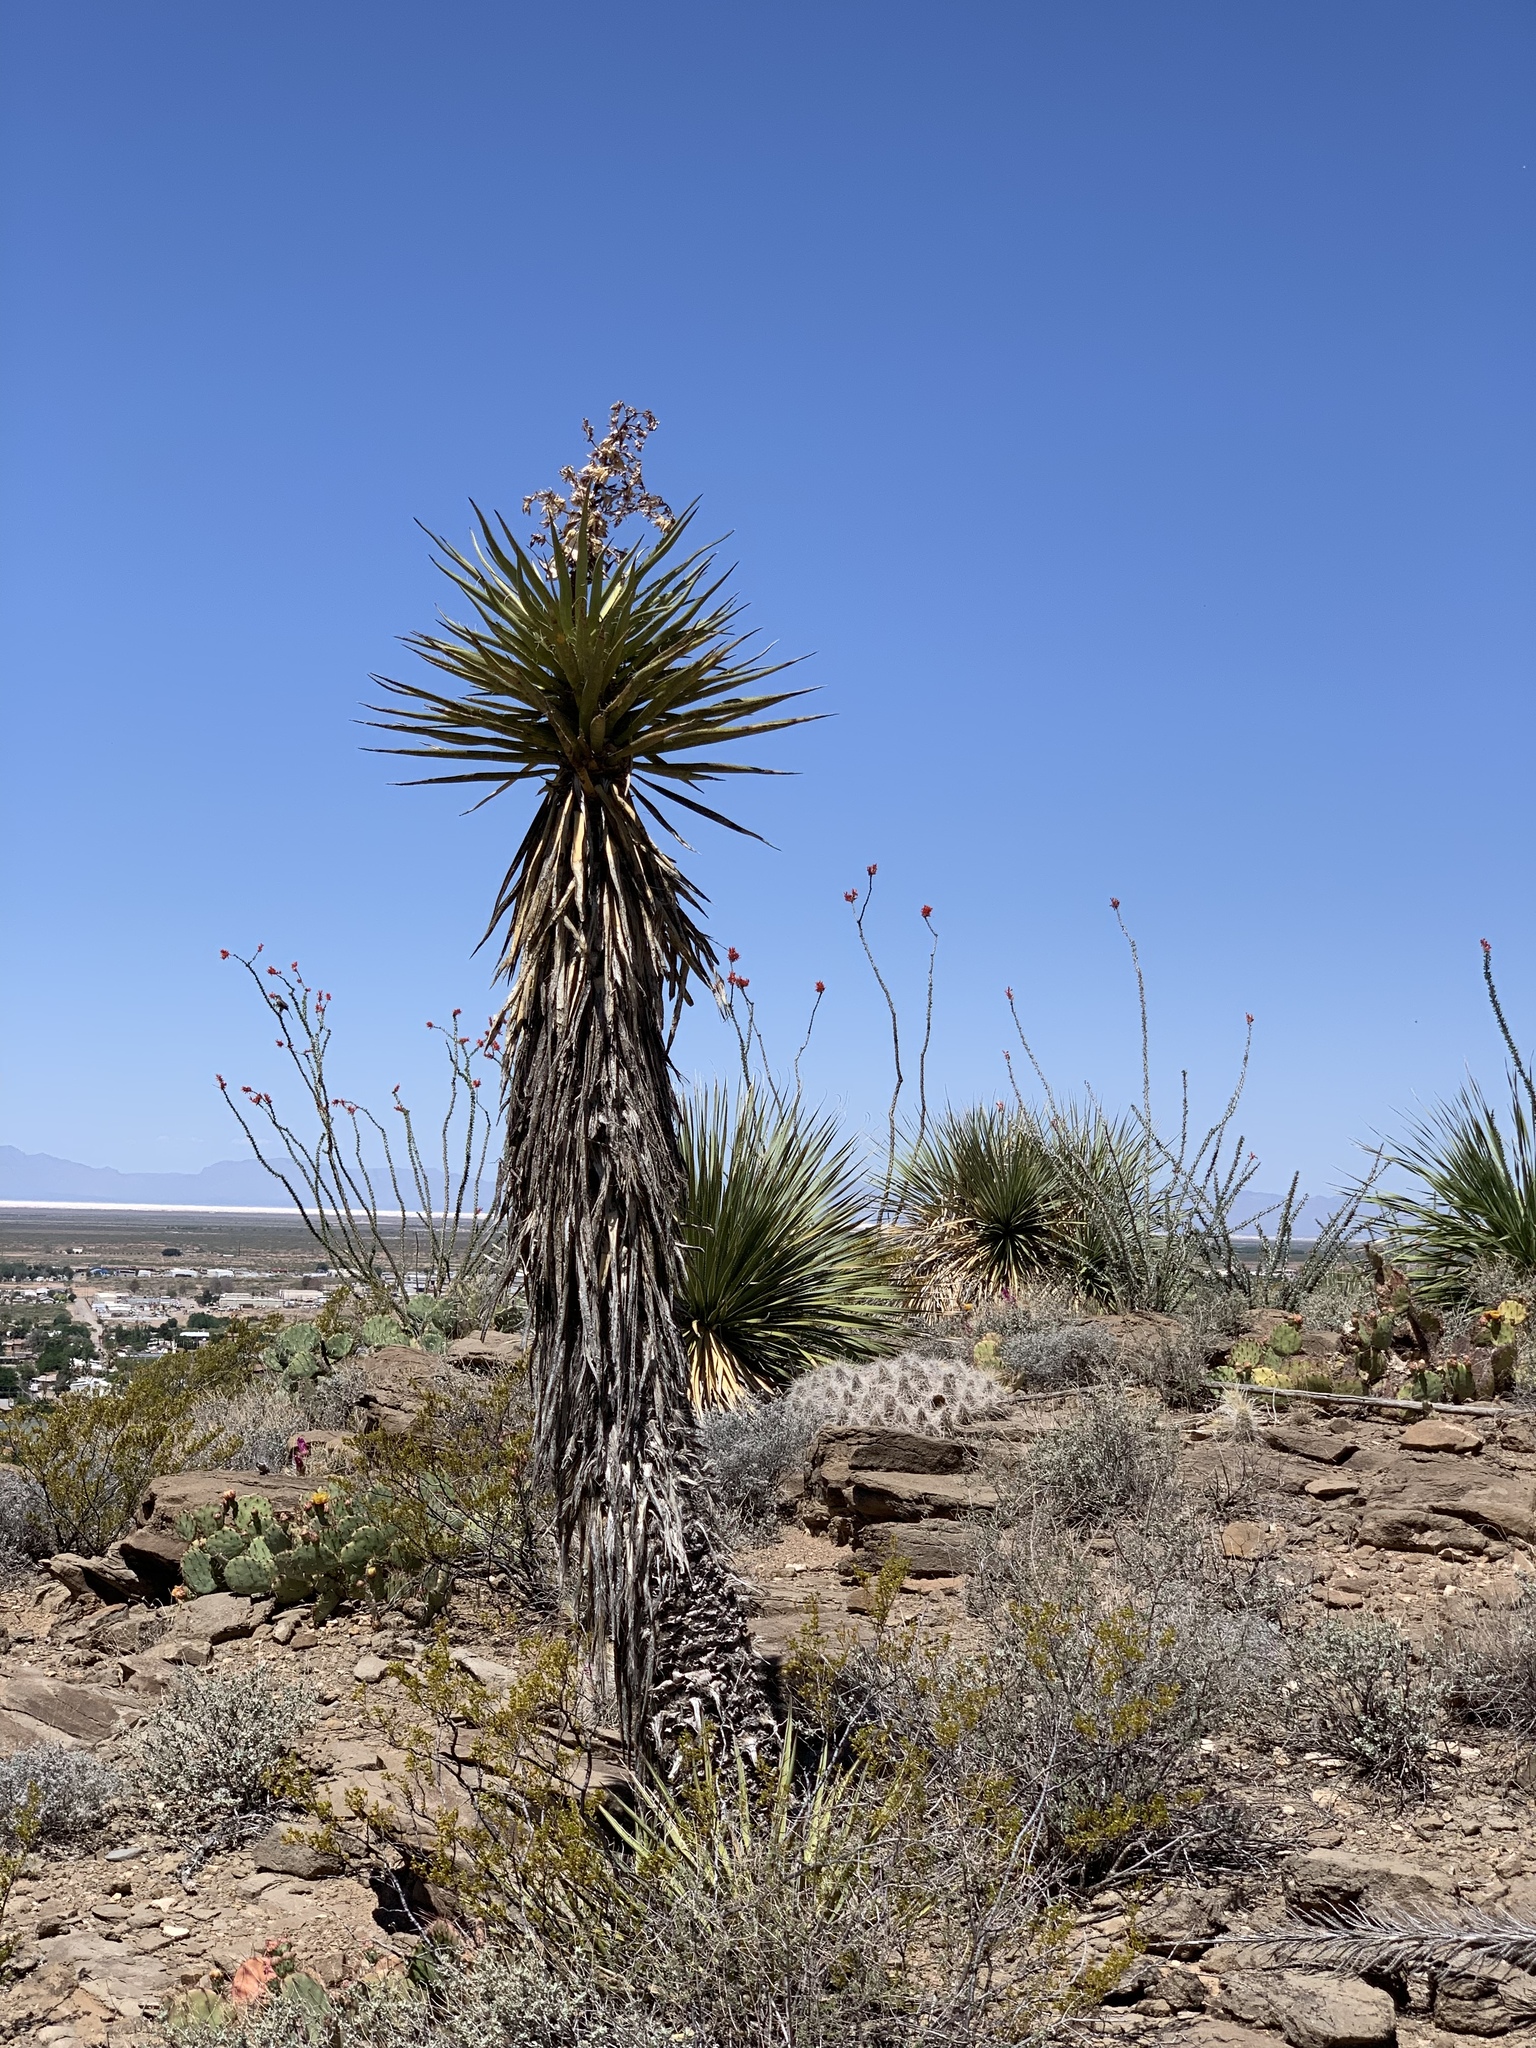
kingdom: Plantae
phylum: Tracheophyta
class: Liliopsida
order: Asparagales
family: Asparagaceae
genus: Yucca
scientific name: Yucca treculiana
